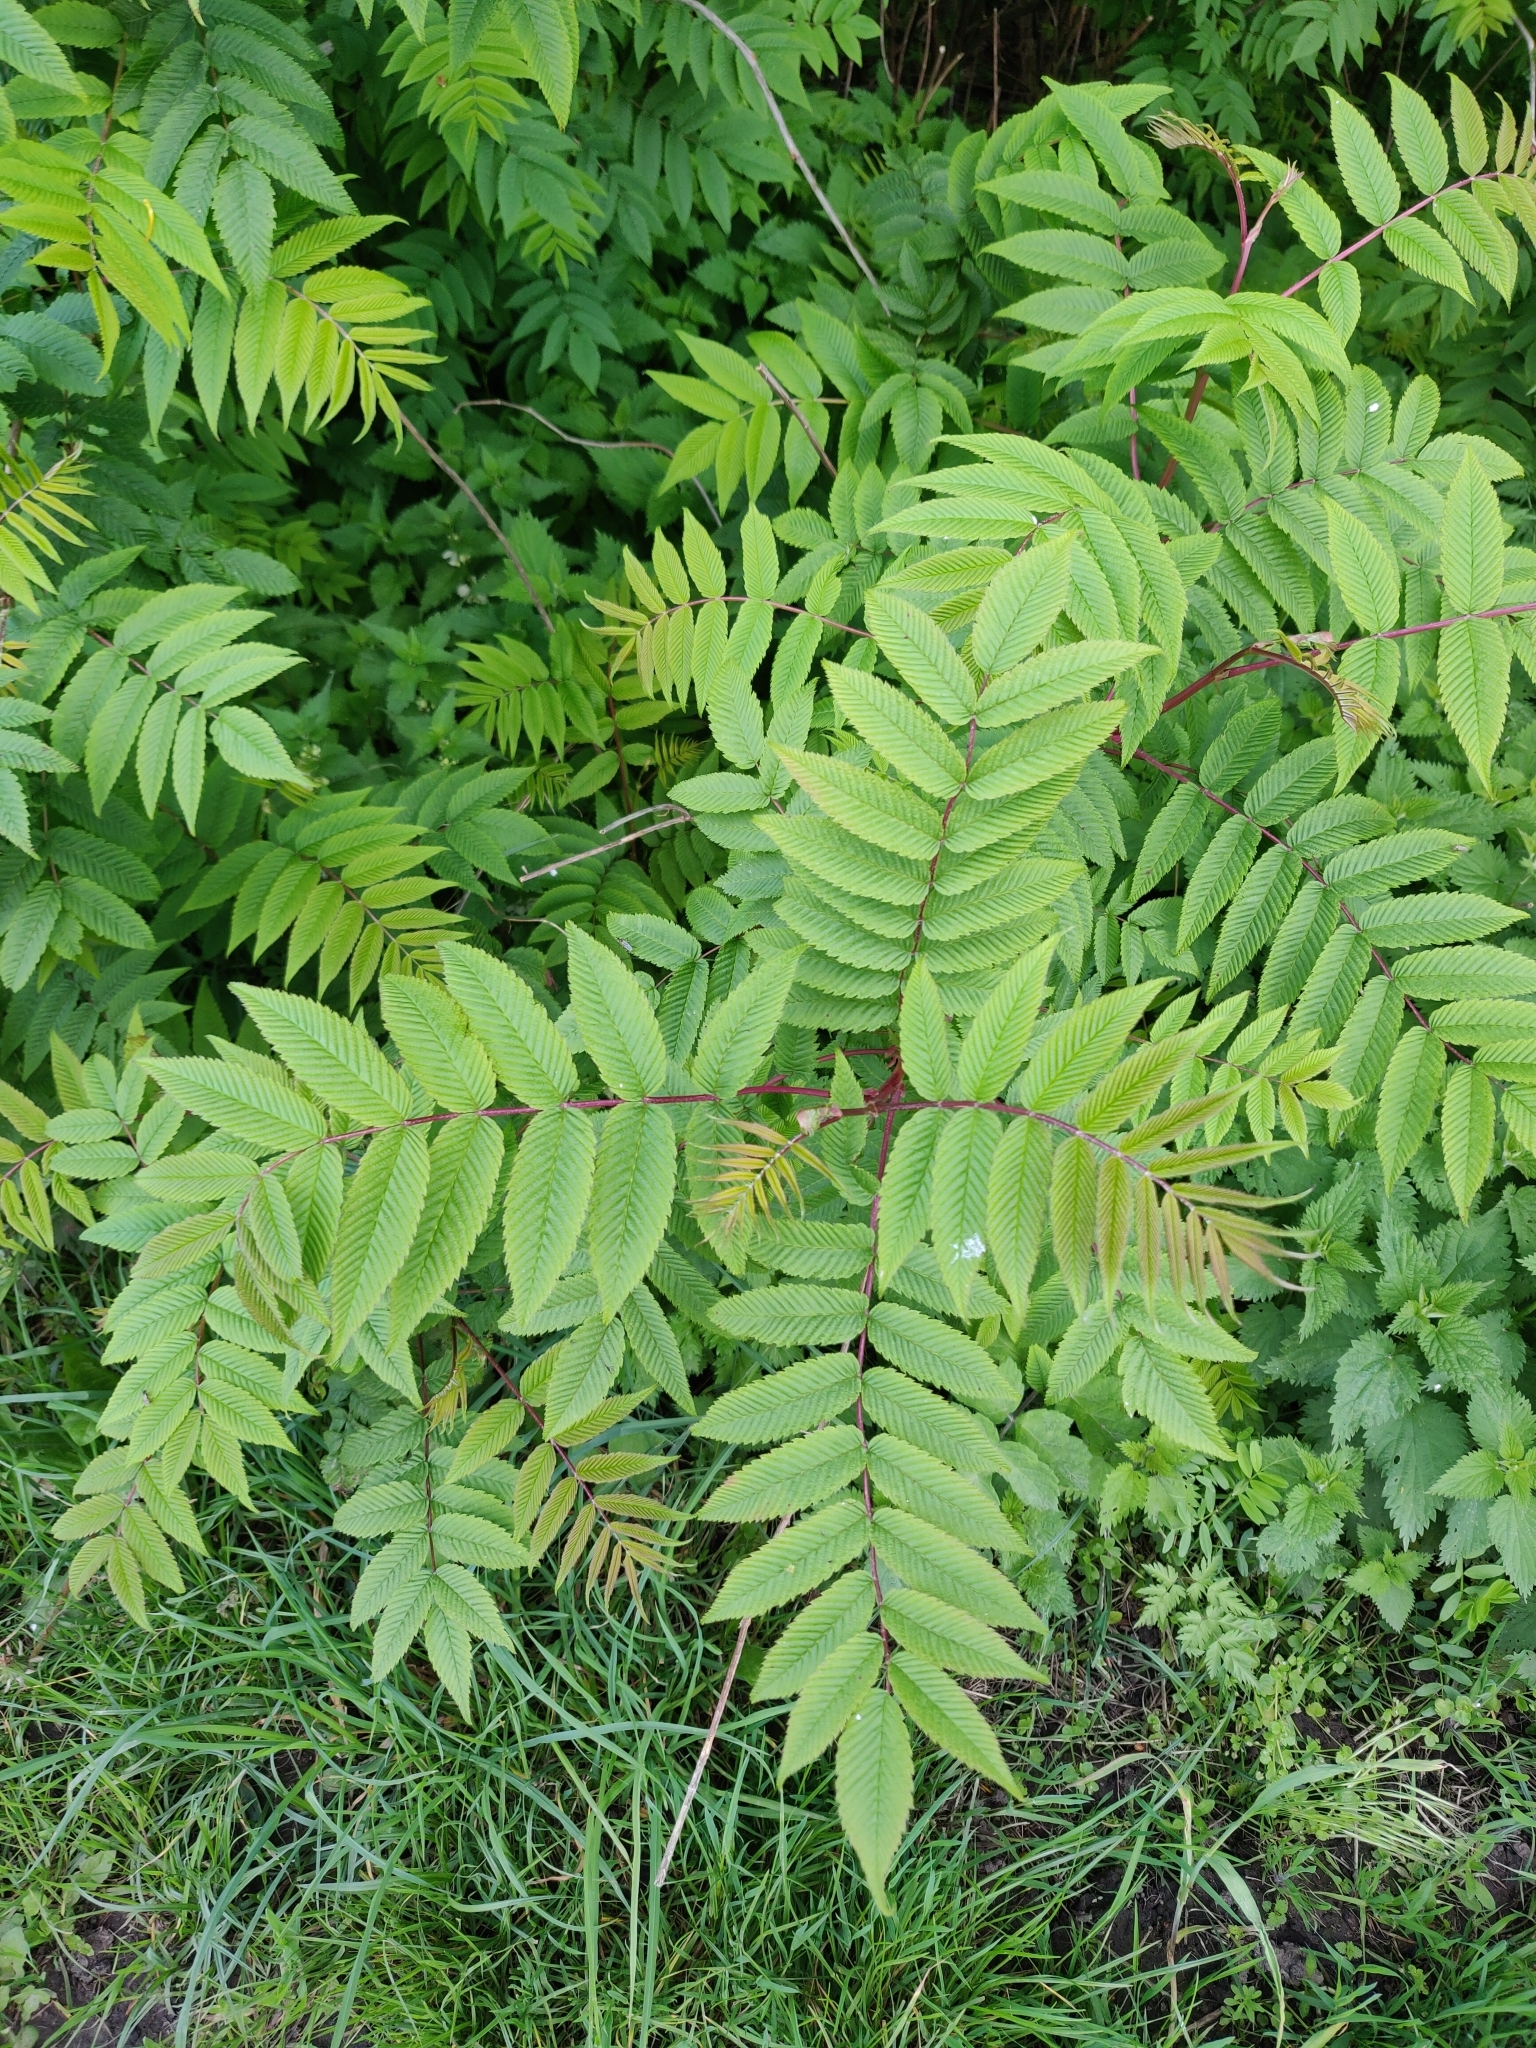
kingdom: Plantae
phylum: Tracheophyta
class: Magnoliopsida
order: Sapindales
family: Anacardiaceae
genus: Rhus
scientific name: Rhus typhina
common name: Staghorn sumac
